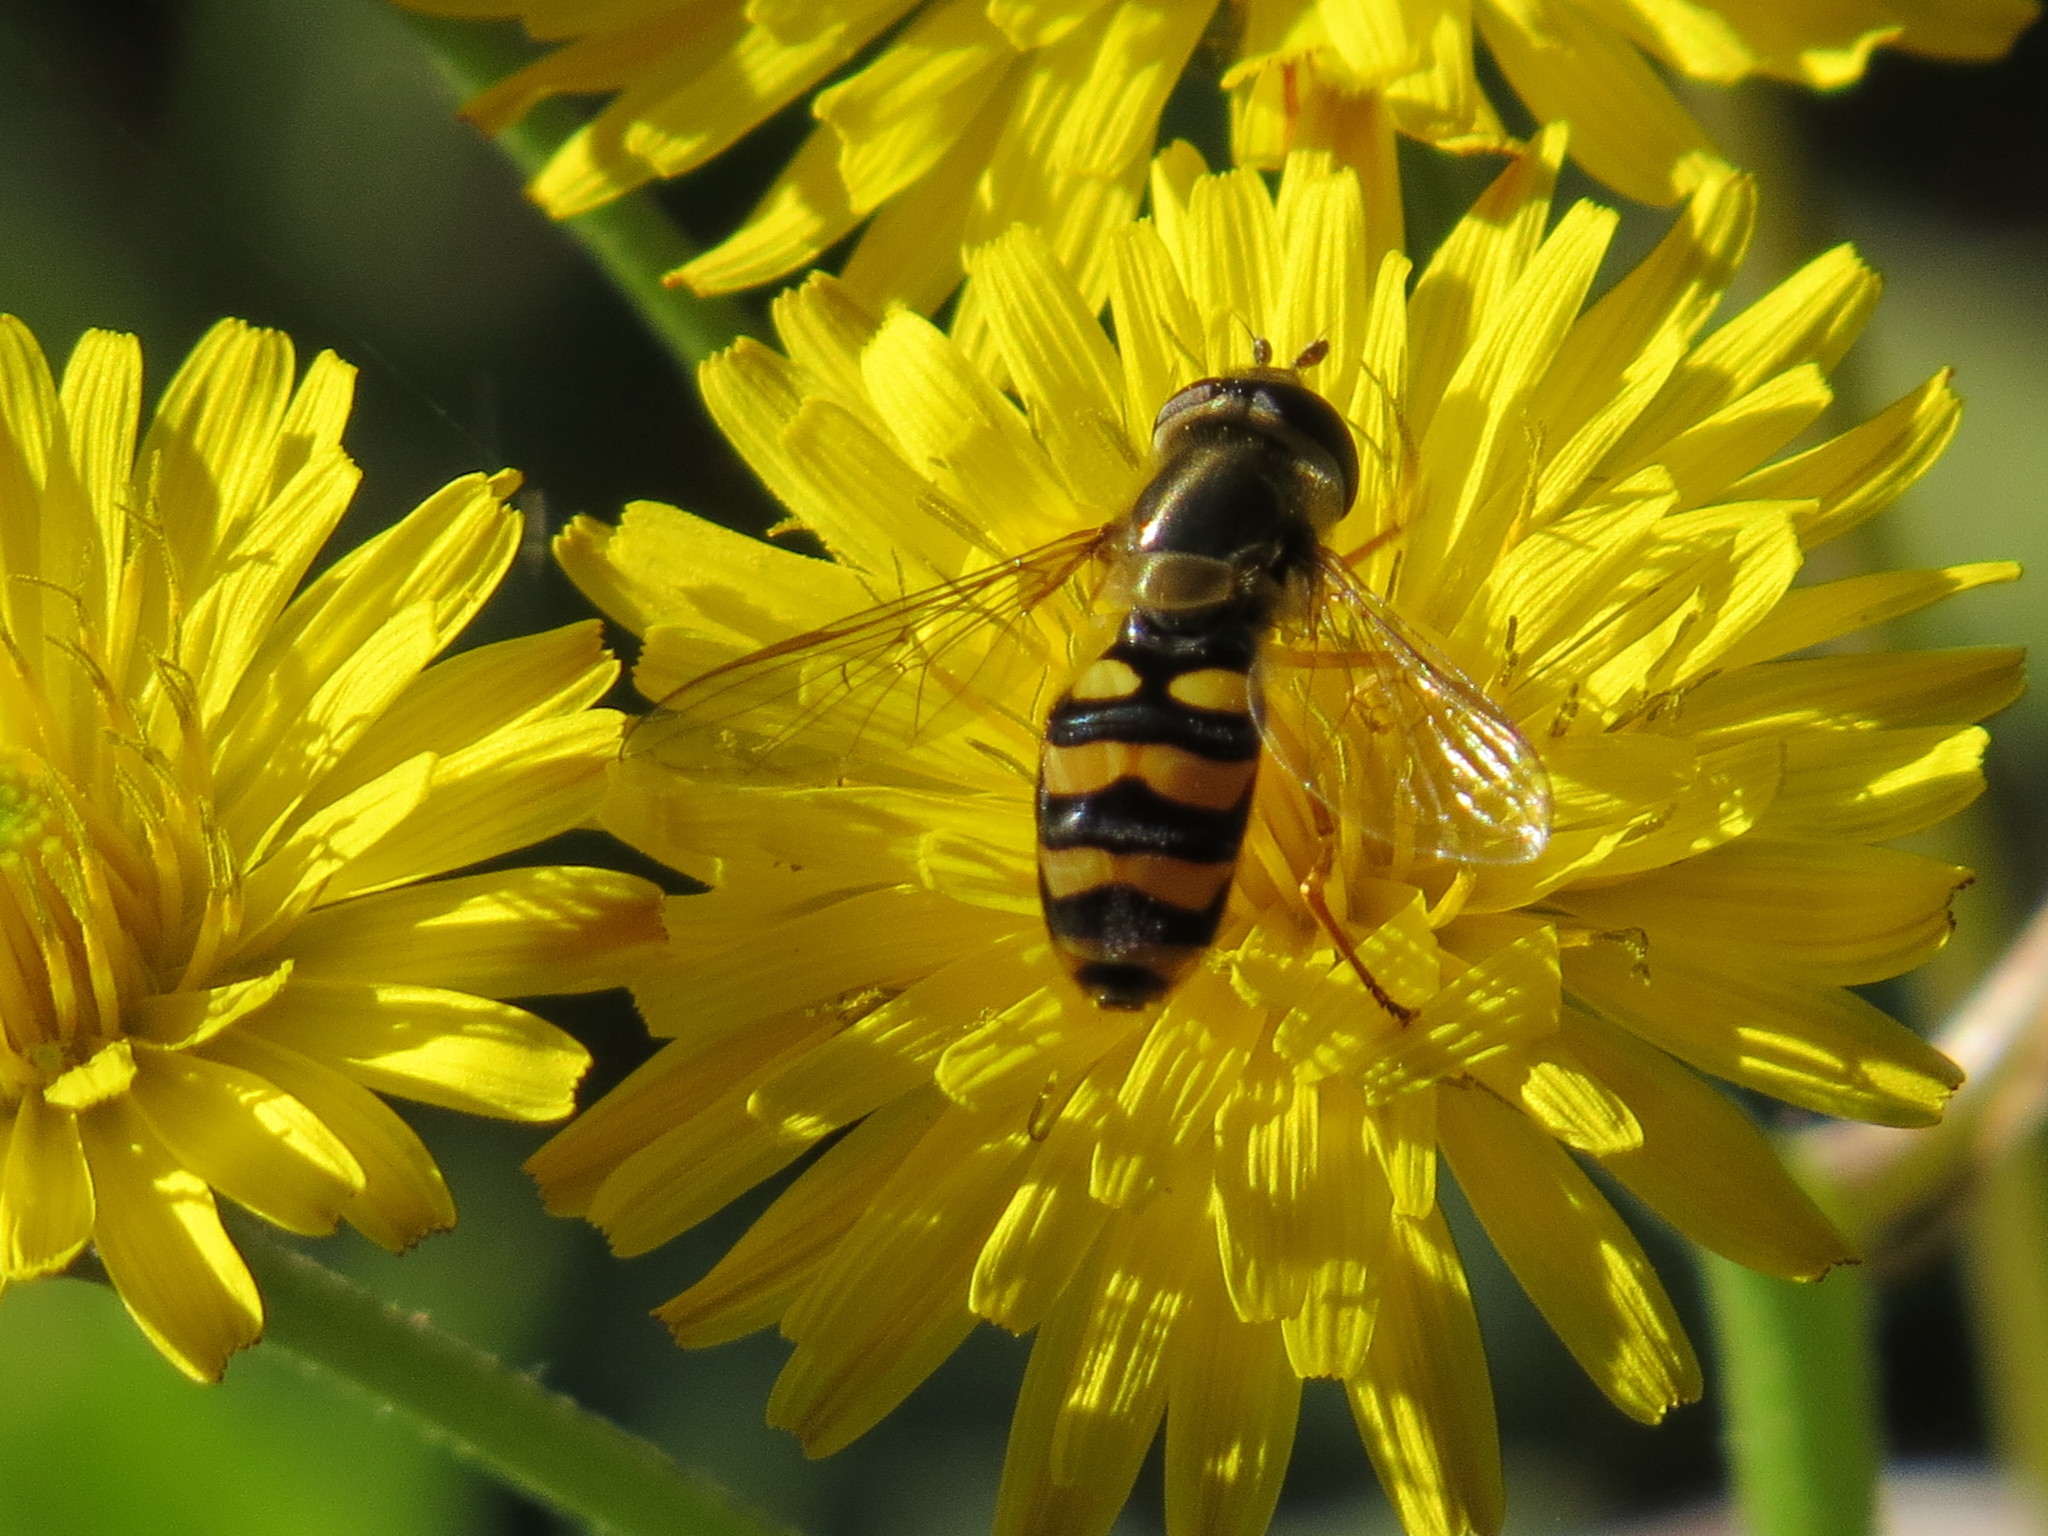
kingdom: Animalia
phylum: Arthropoda
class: Insecta
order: Diptera
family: Syrphidae
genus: Eupeodes
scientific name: Eupeodes fumipennis
